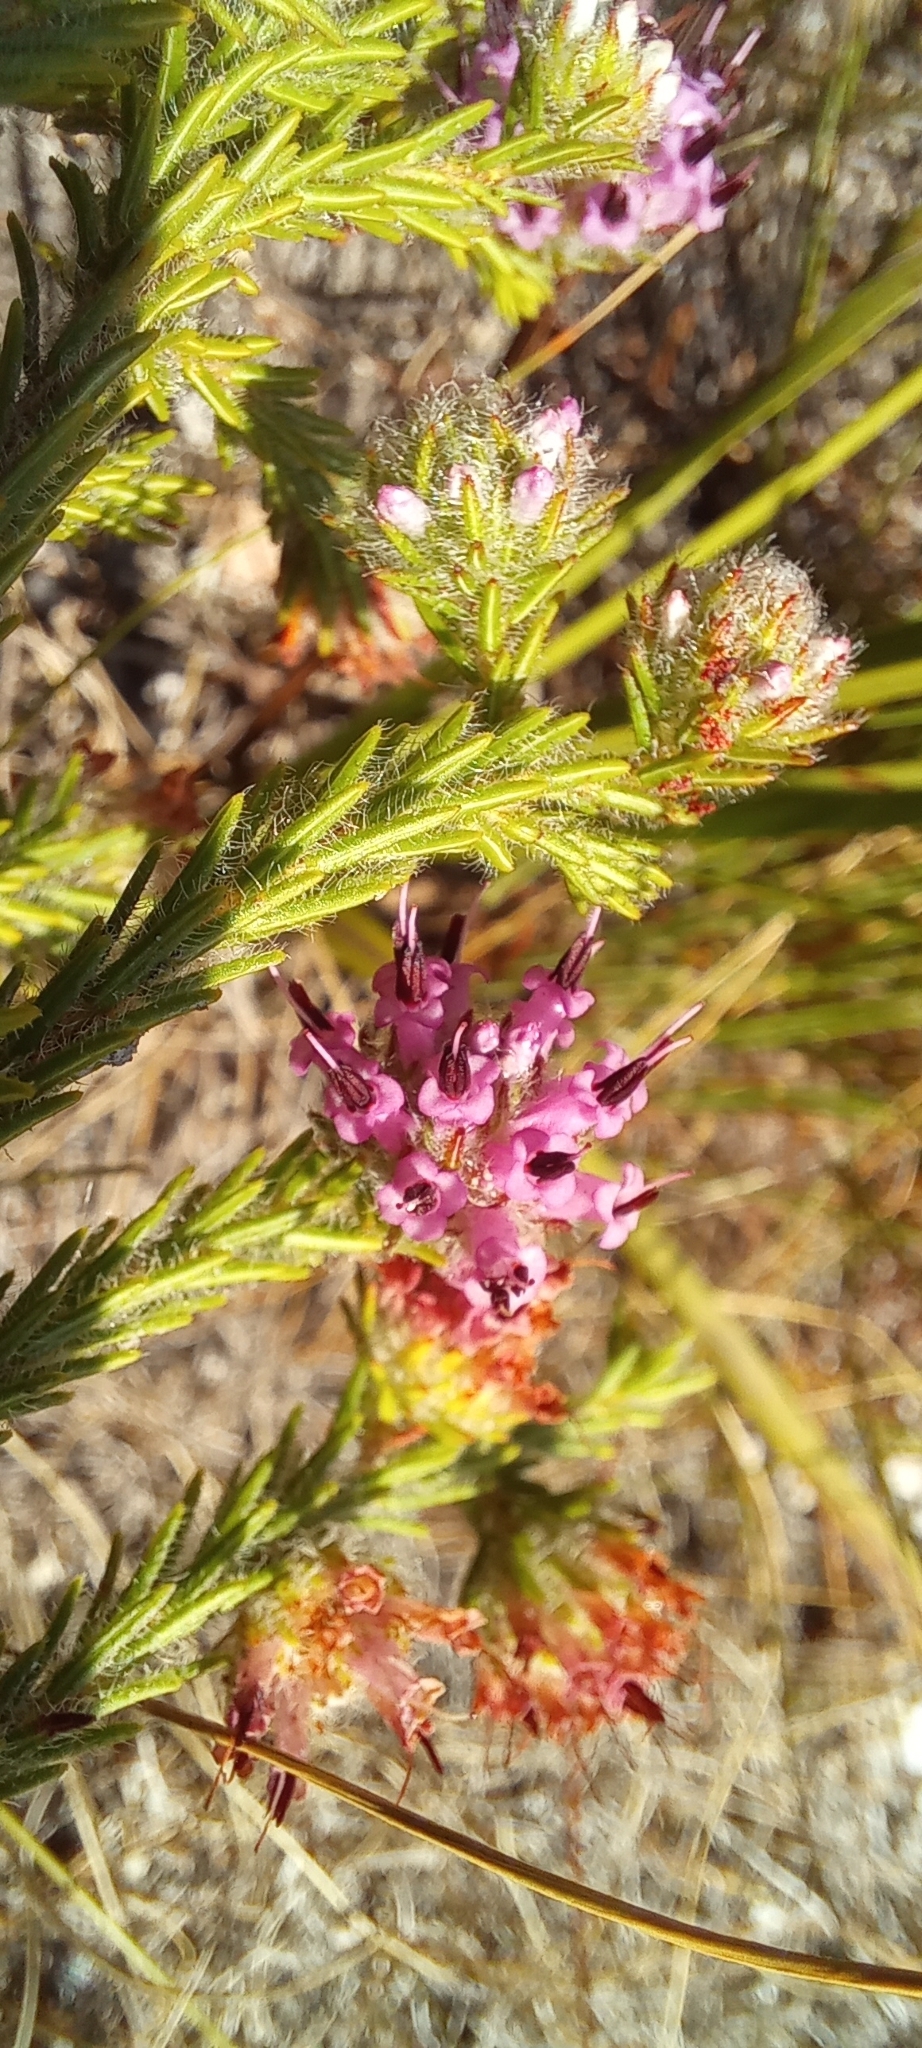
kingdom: Plantae
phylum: Tracheophyta
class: Magnoliopsida
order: Ericales
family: Ericaceae
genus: Erica
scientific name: Erica barbigeroides
